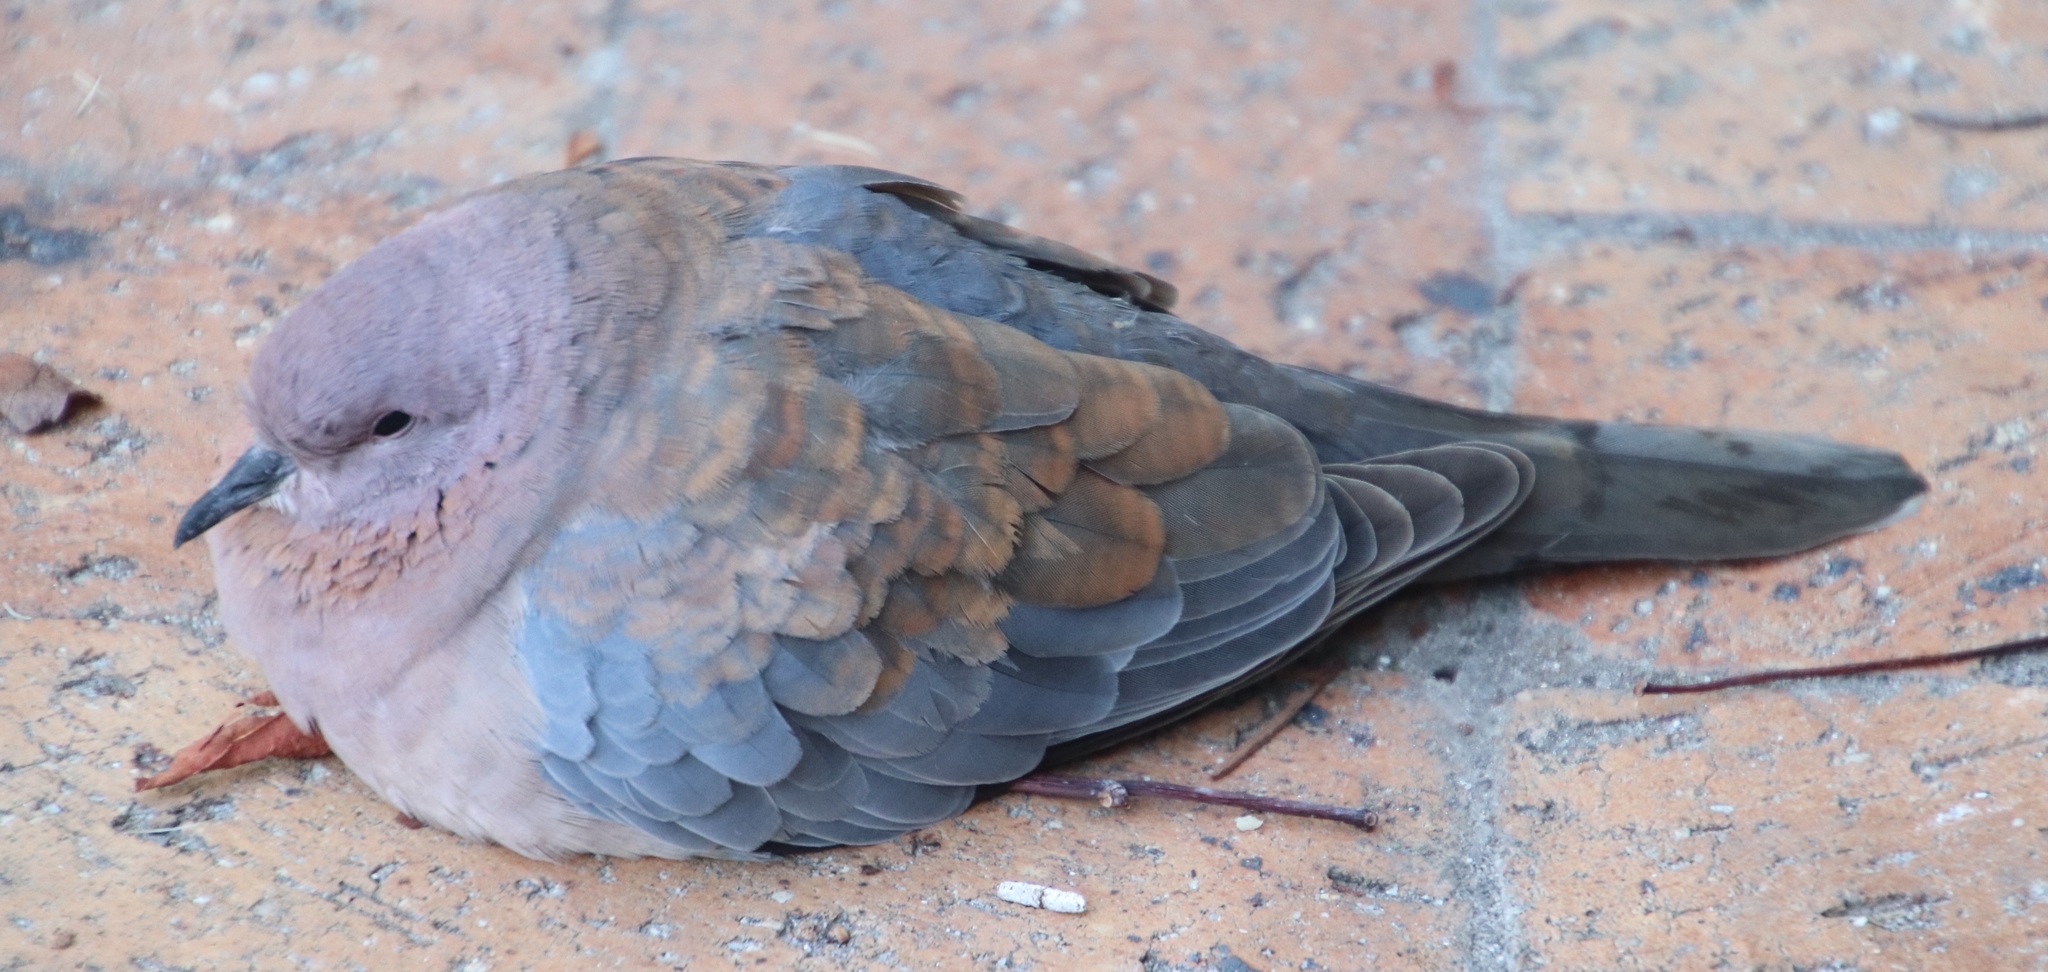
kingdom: Animalia
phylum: Chordata
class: Aves
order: Columbiformes
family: Columbidae
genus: Spilopelia
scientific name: Spilopelia senegalensis
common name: Laughing dove
